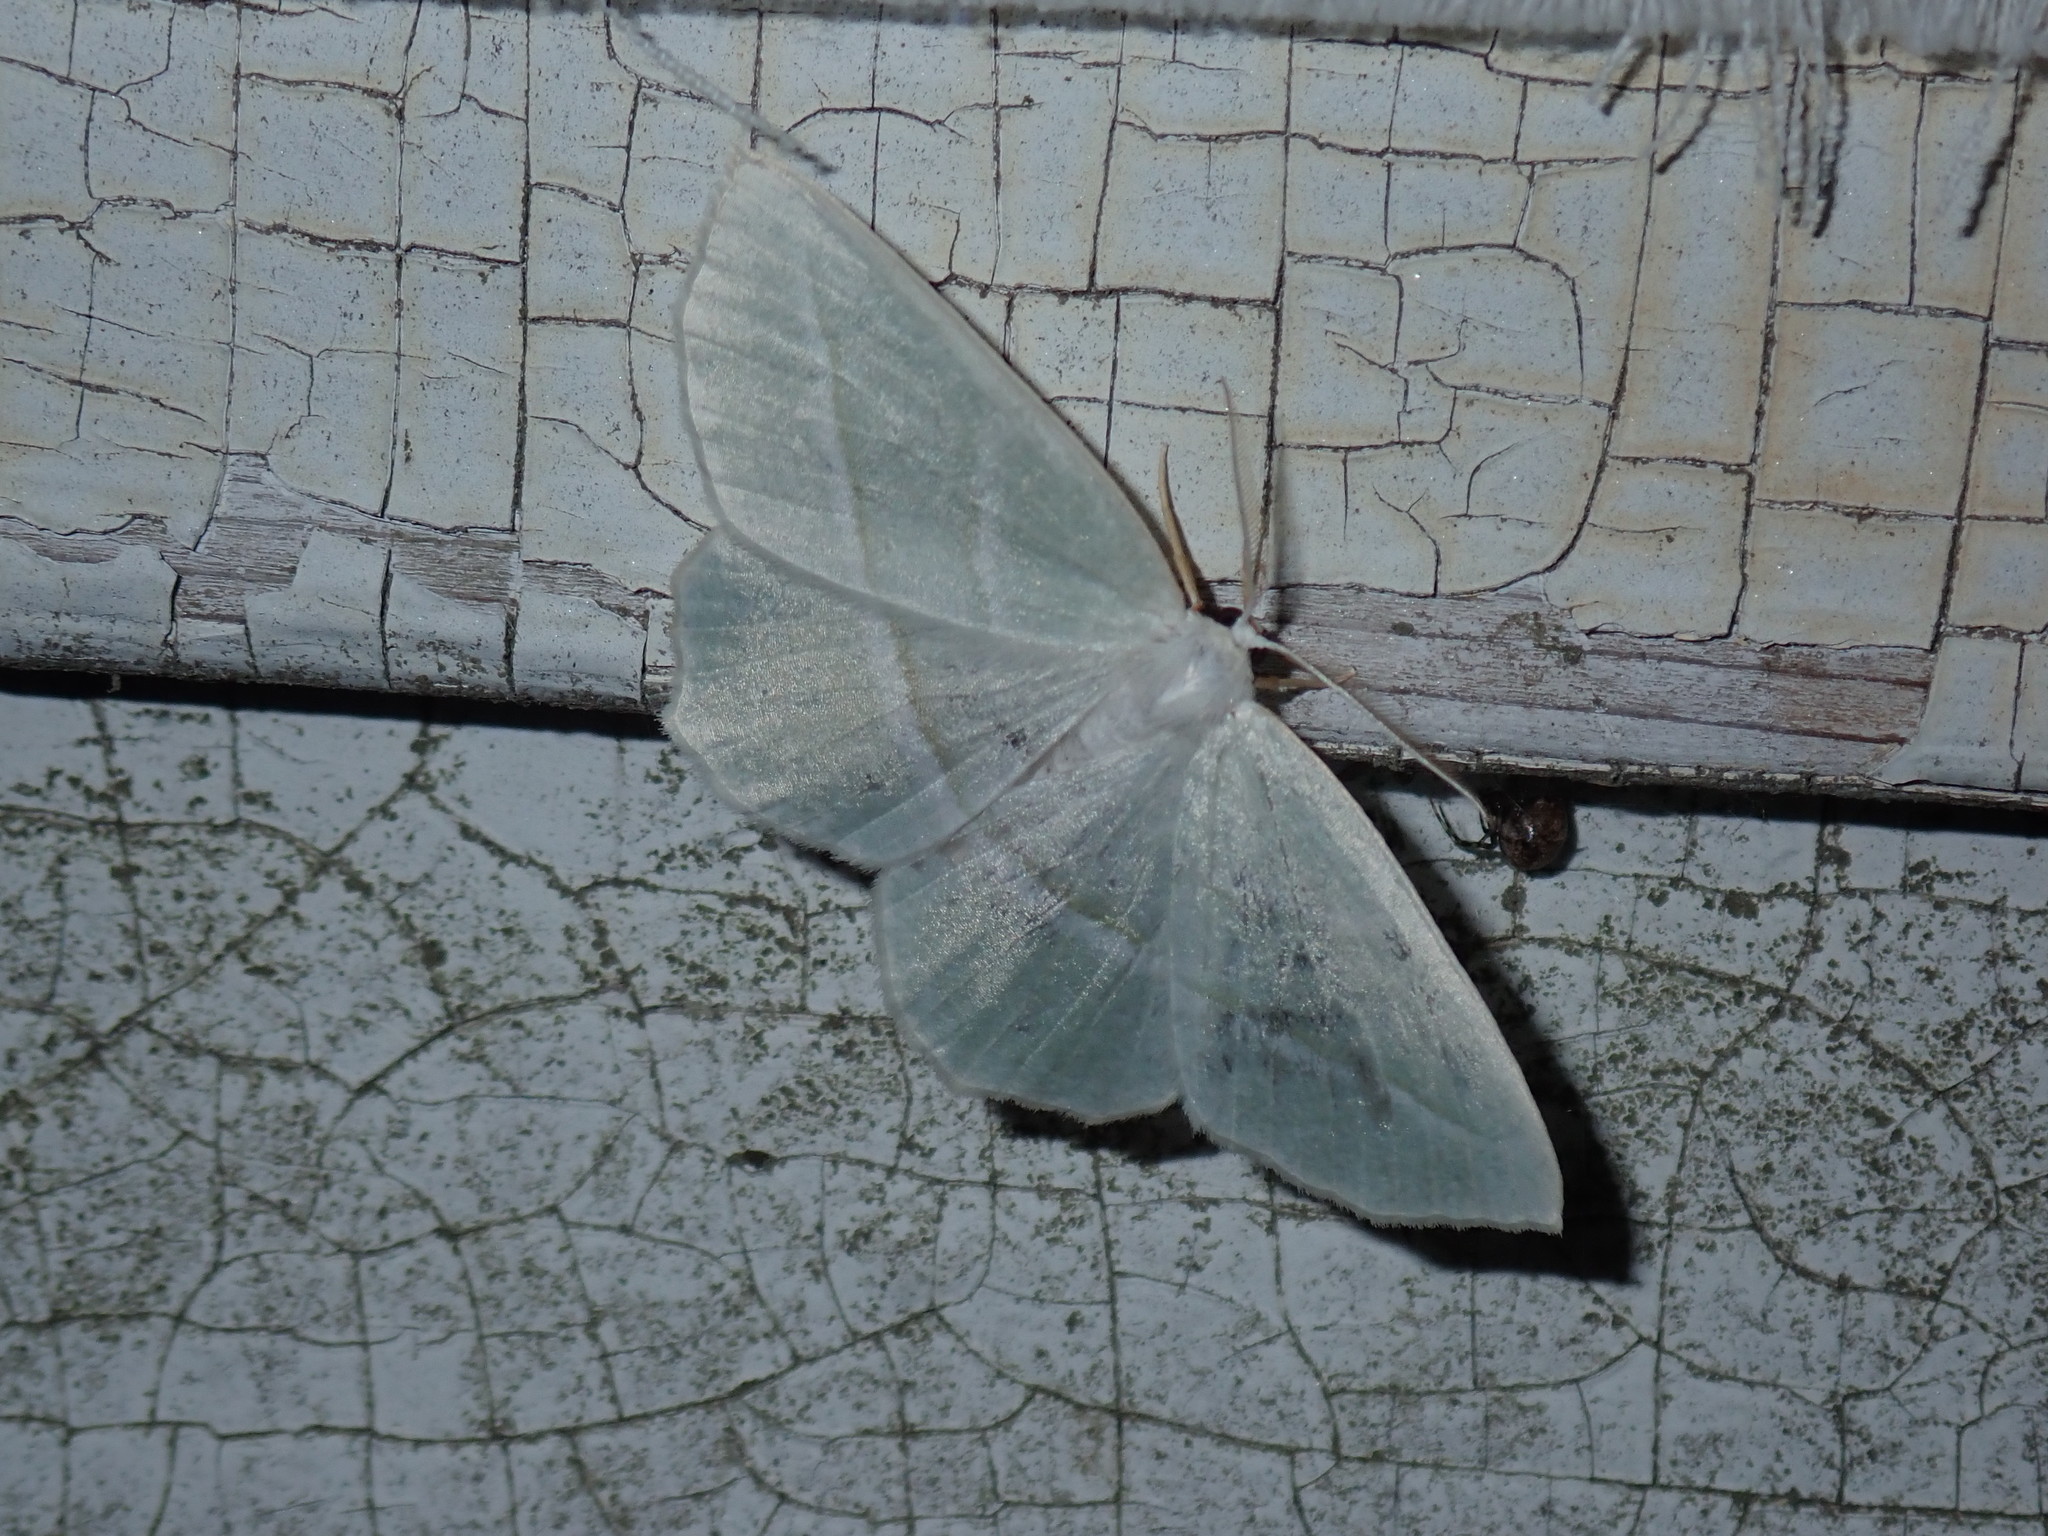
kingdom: Animalia
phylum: Arthropoda
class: Insecta
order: Lepidoptera
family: Geometridae
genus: Campaea
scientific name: Campaea perlata
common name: Fringed looper
